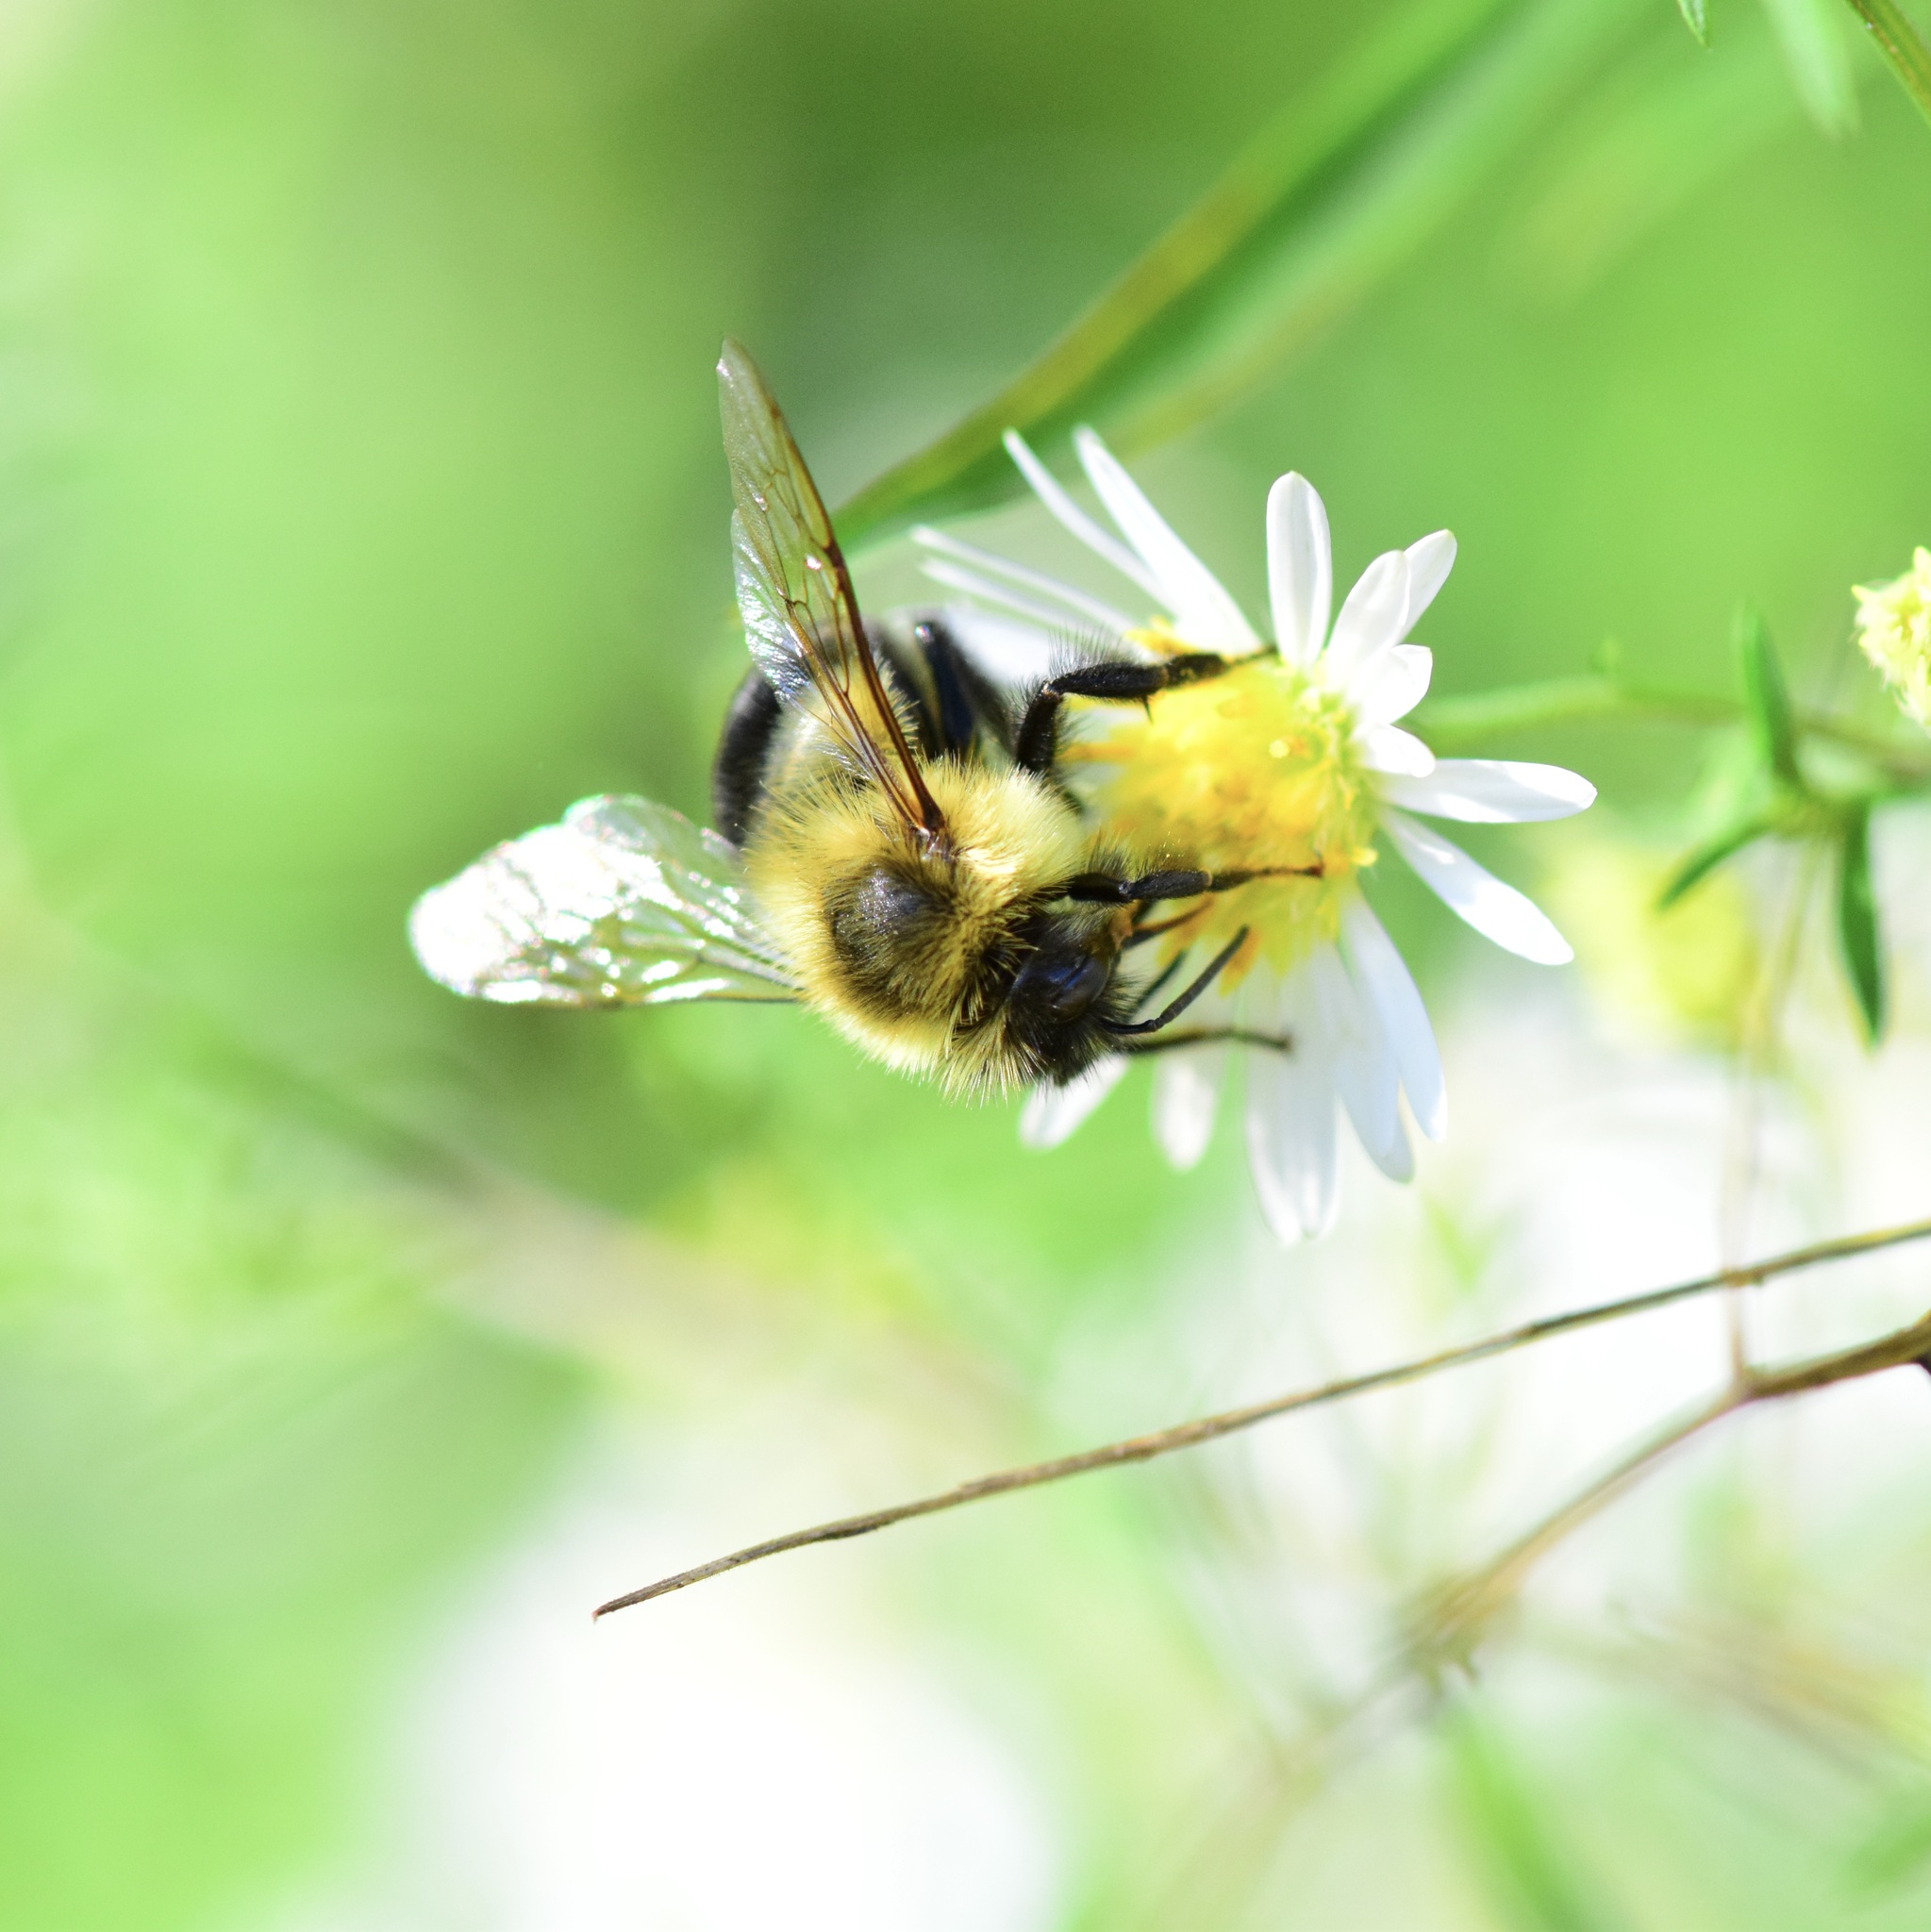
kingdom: Animalia
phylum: Arthropoda
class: Insecta
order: Hymenoptera
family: Apidae
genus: Bombus
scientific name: Bombus impatiens
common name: Common eastern bumble bee
